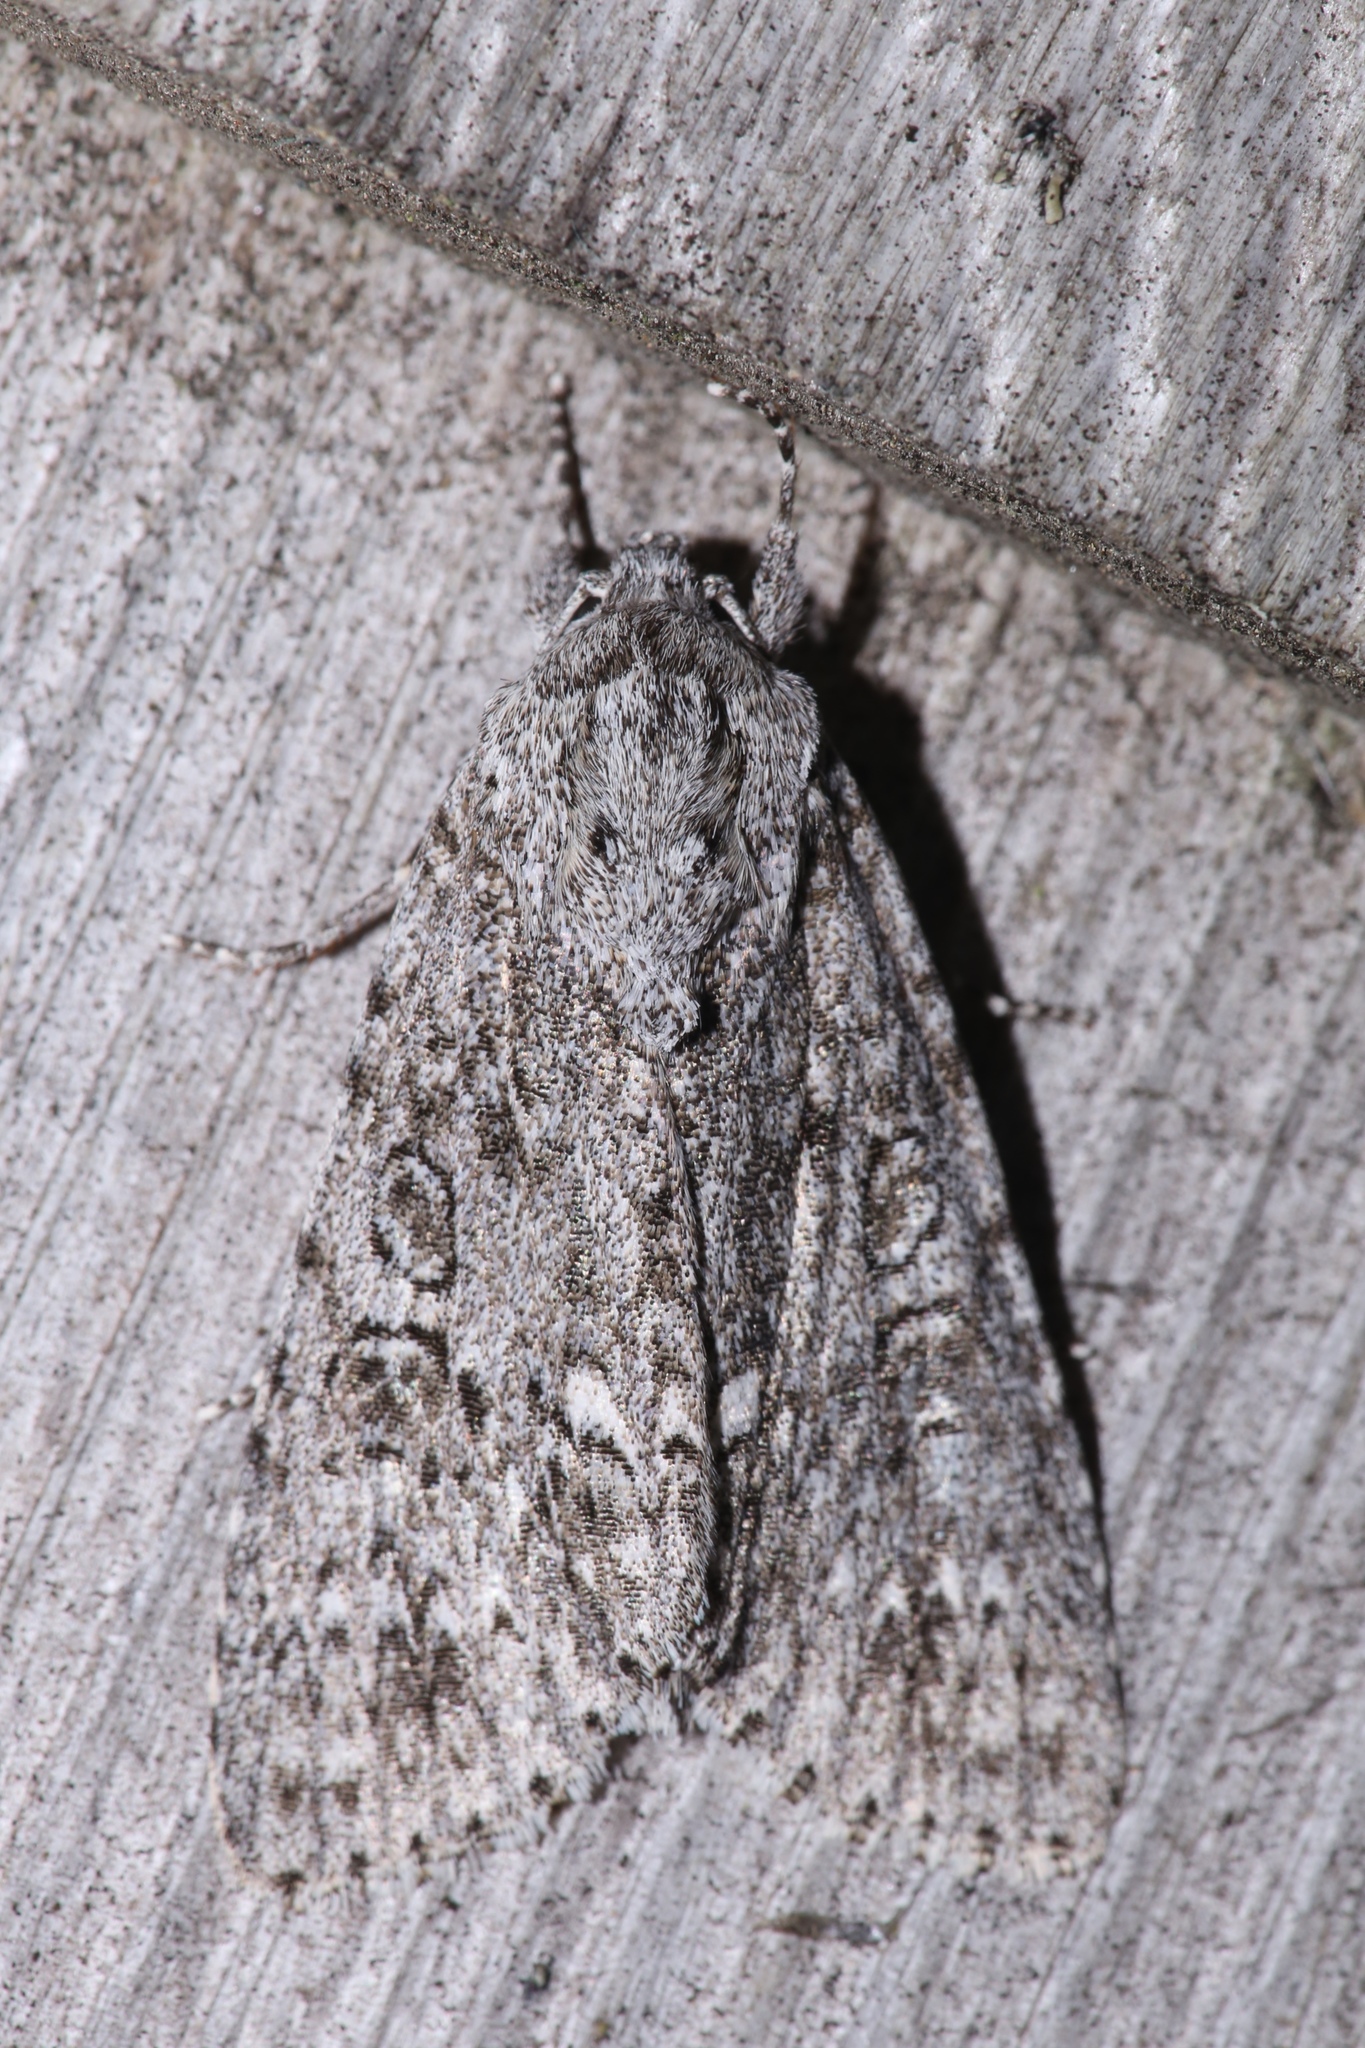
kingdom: Animalia
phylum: Arthropoda
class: Insecta
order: Lepidoptera
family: Noctuidae
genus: Acronicta
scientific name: Acronicta impleta
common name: Powdered dagger
